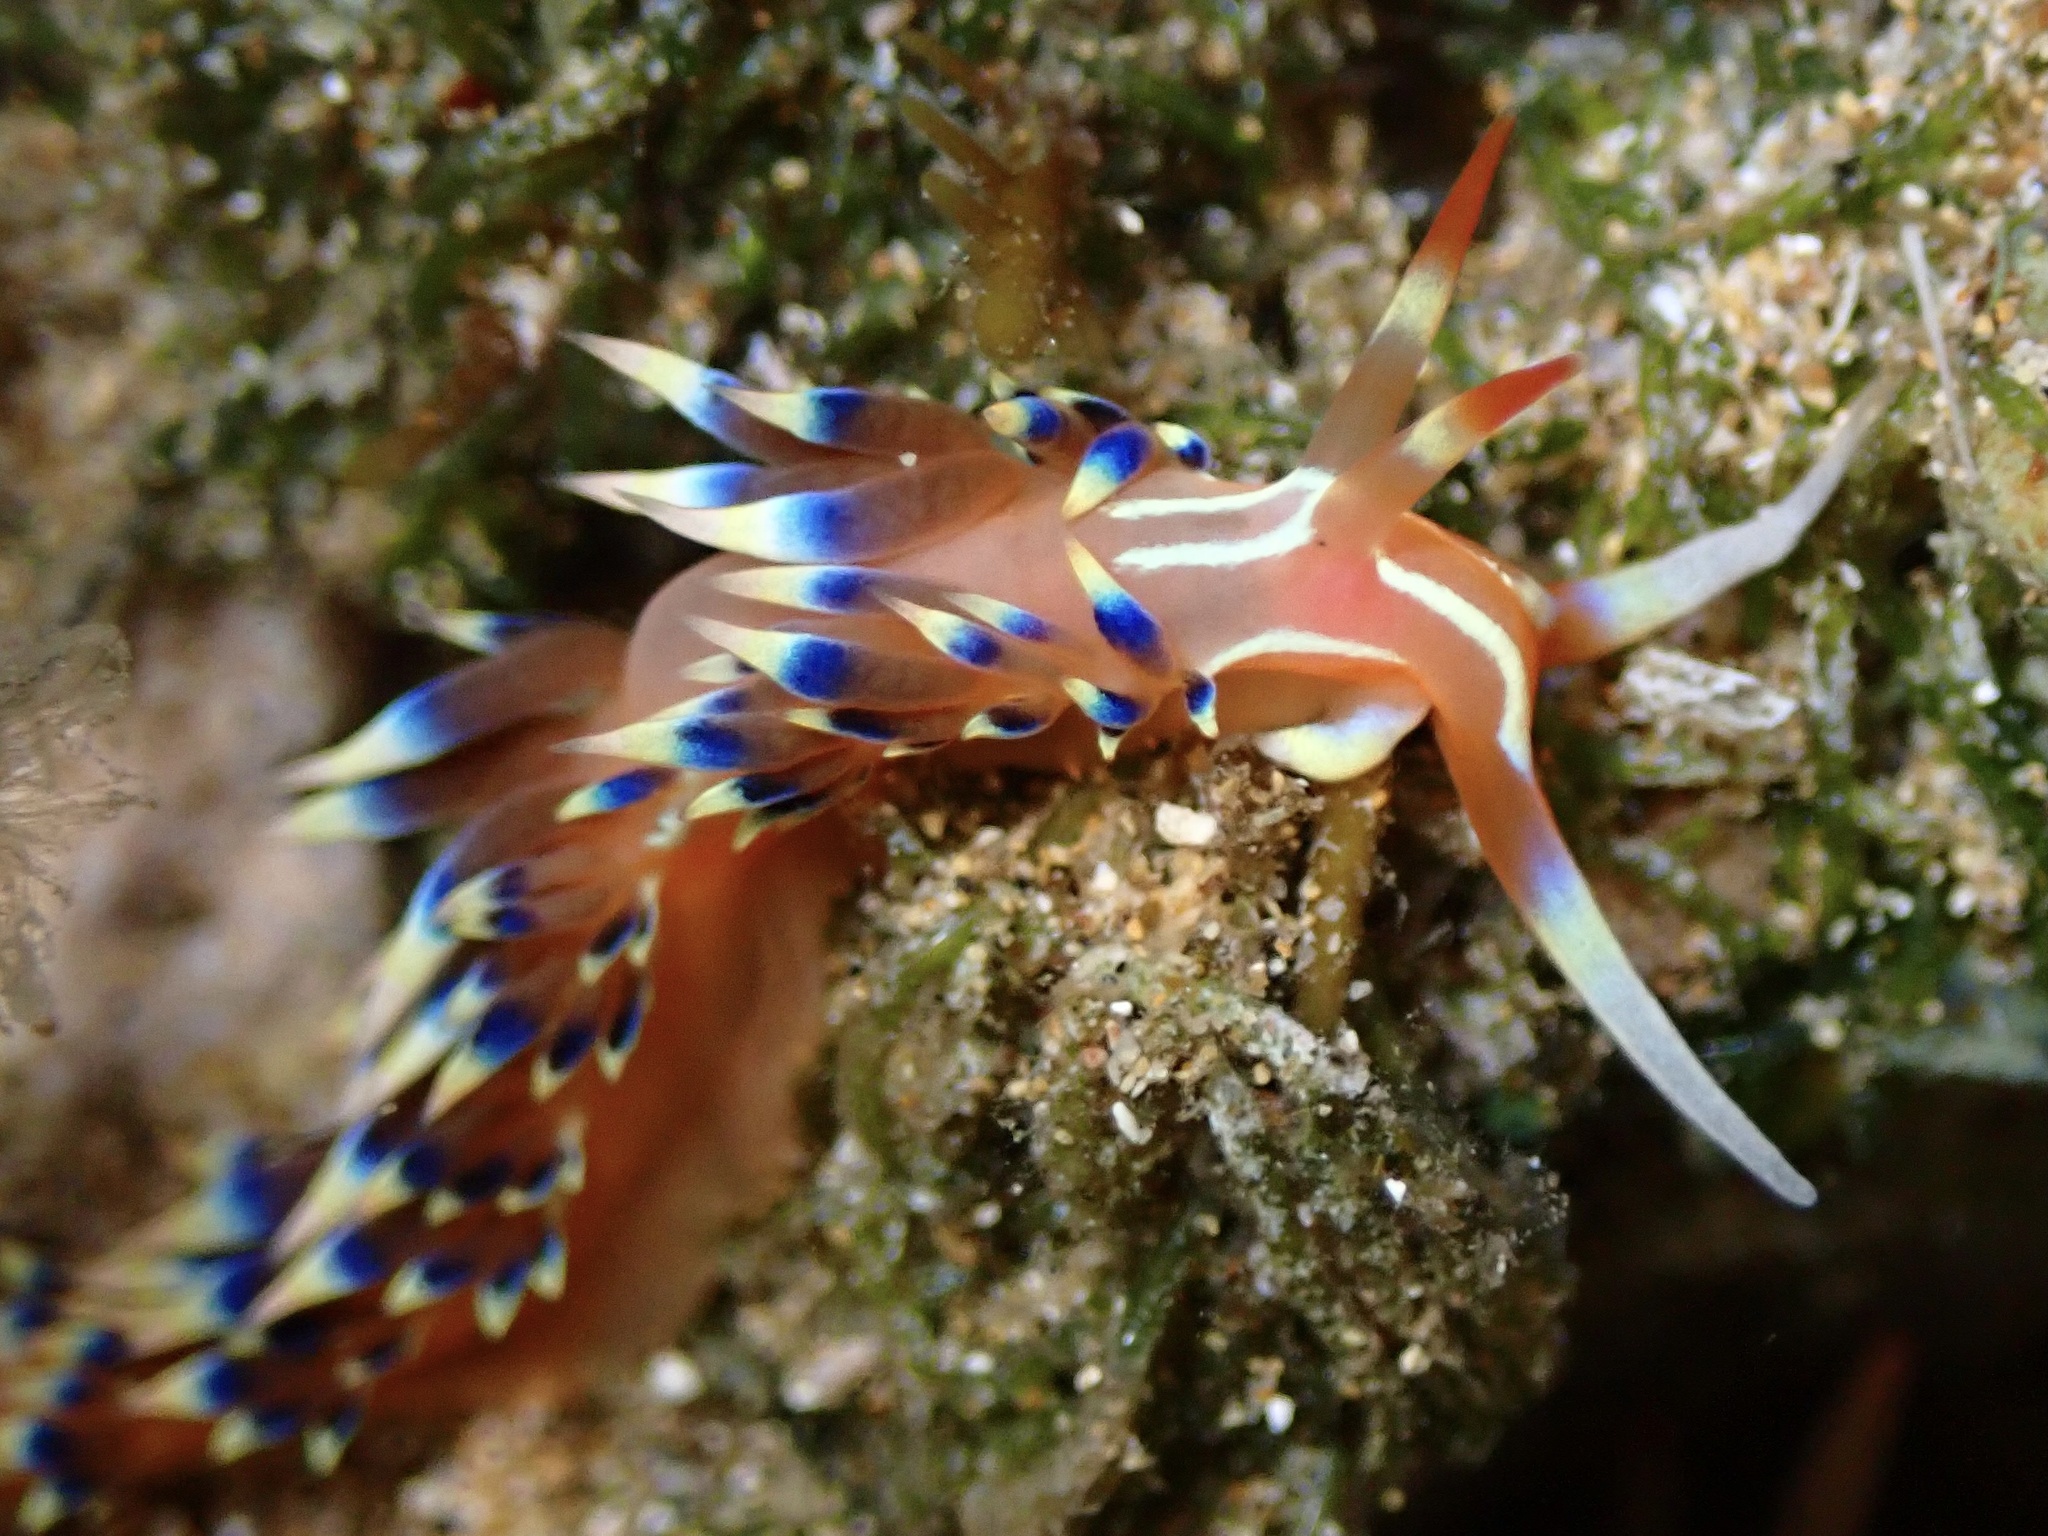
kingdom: Animalia
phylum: Mollusca
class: Gastropoda
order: Nudibranchia
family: Facelinidae
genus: Caloria
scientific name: Caloria indica
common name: Sea slug
